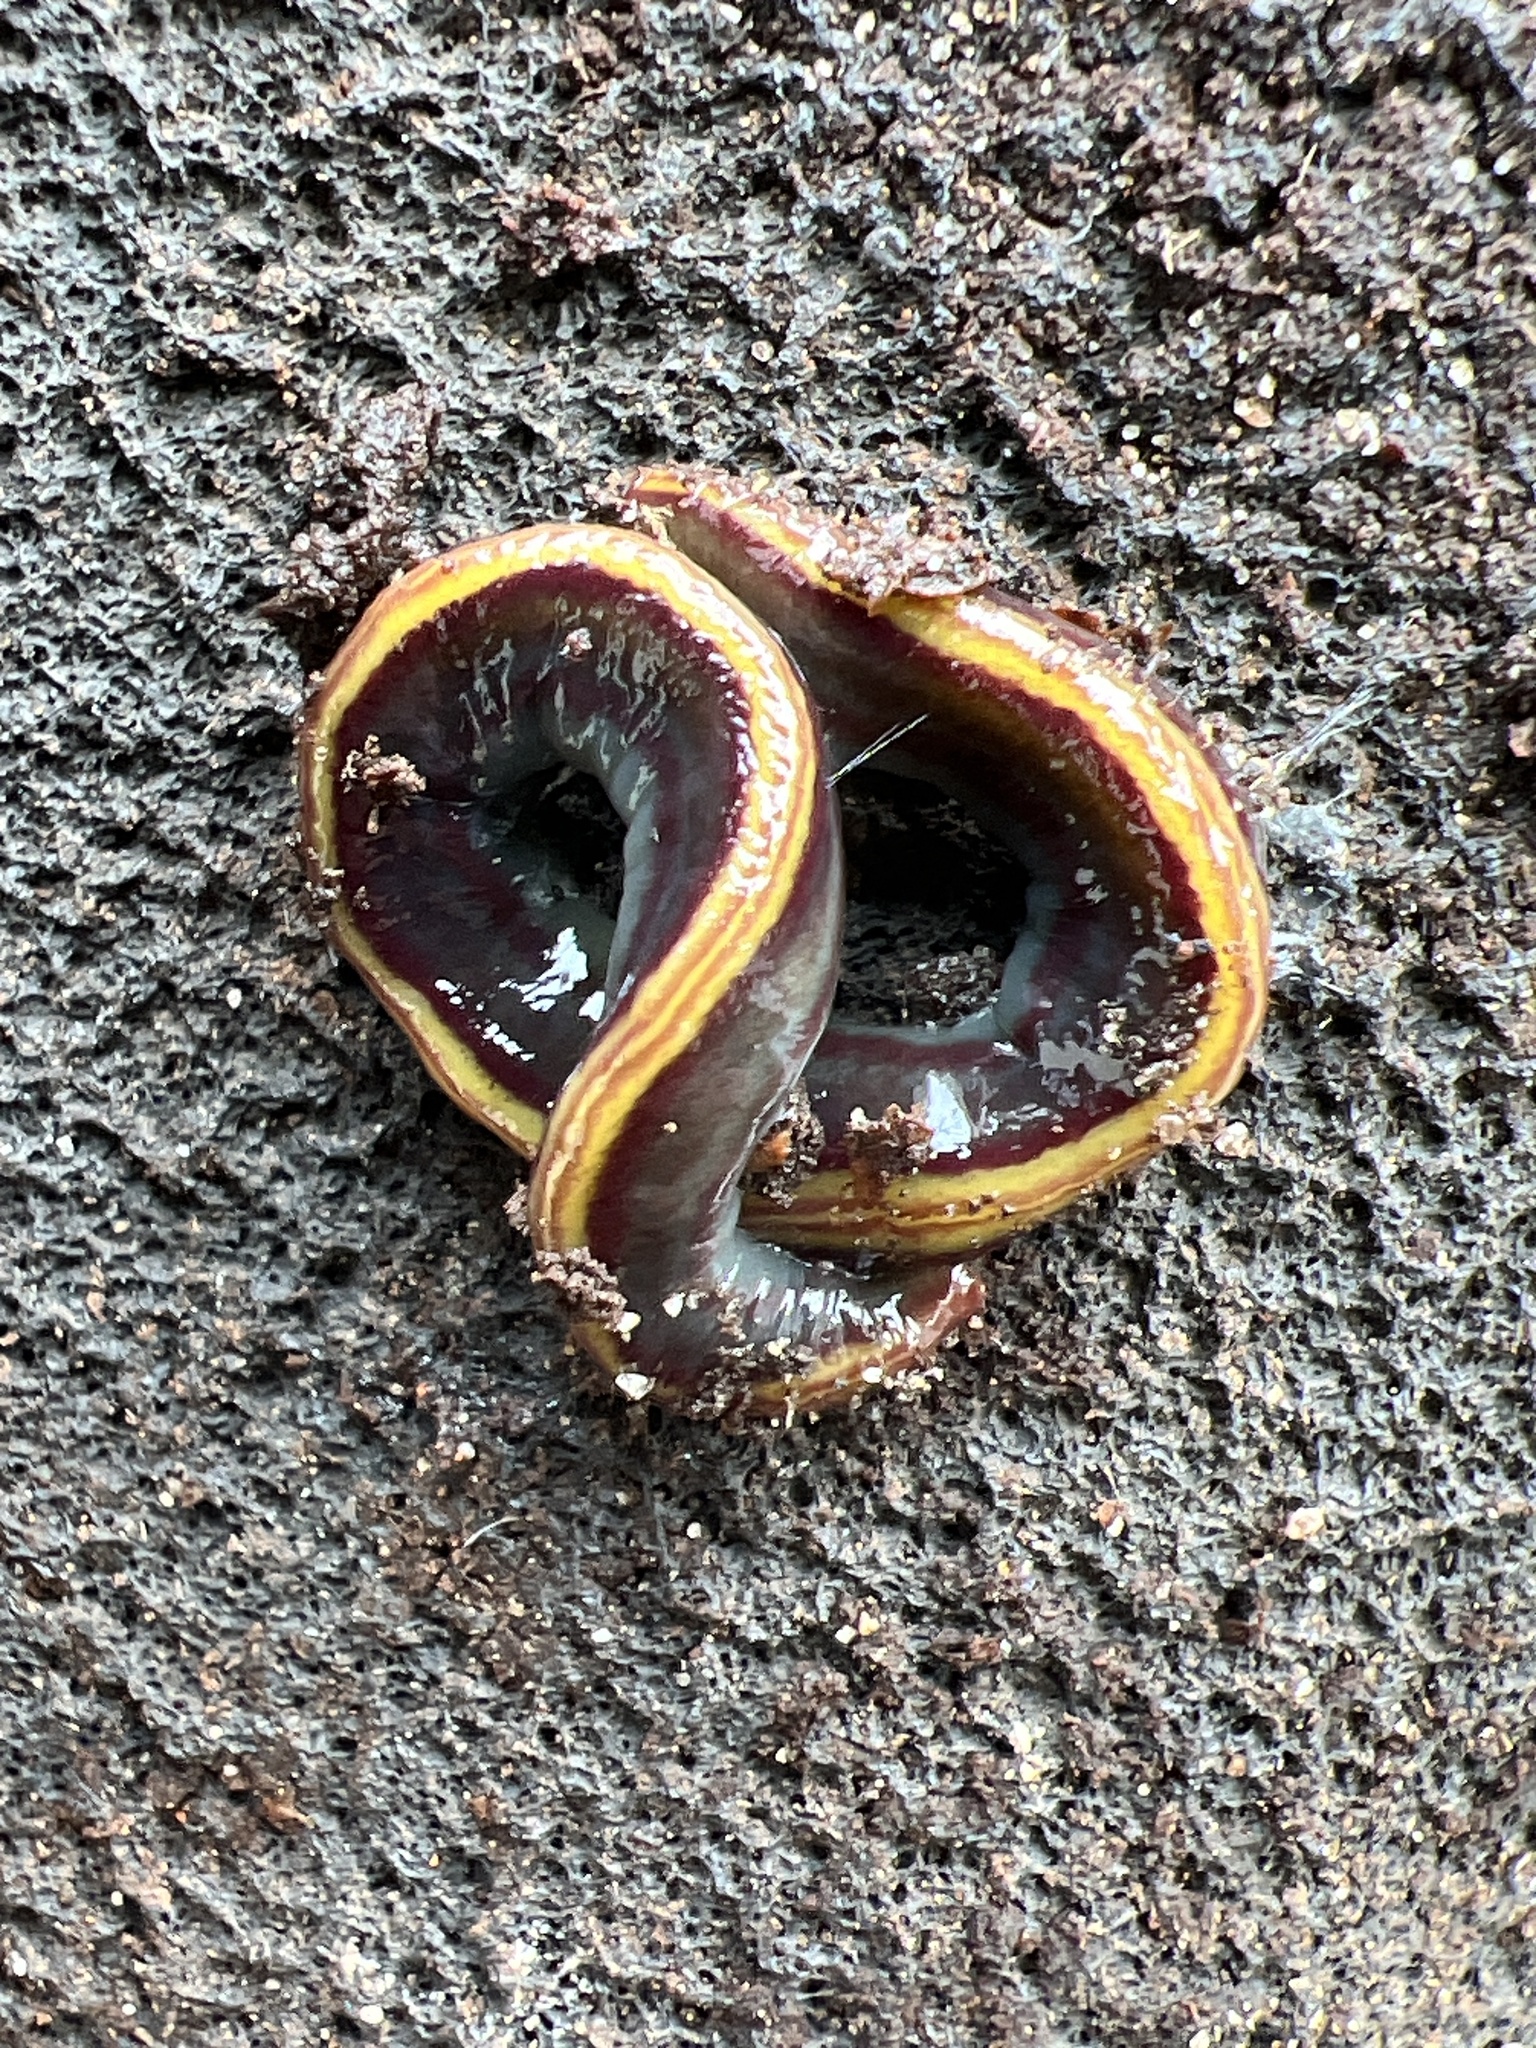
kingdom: Animalia
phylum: Platyhelminthes
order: Tricladida
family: Geoplanidae
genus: Caenoplana
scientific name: Caenoplana variegata
